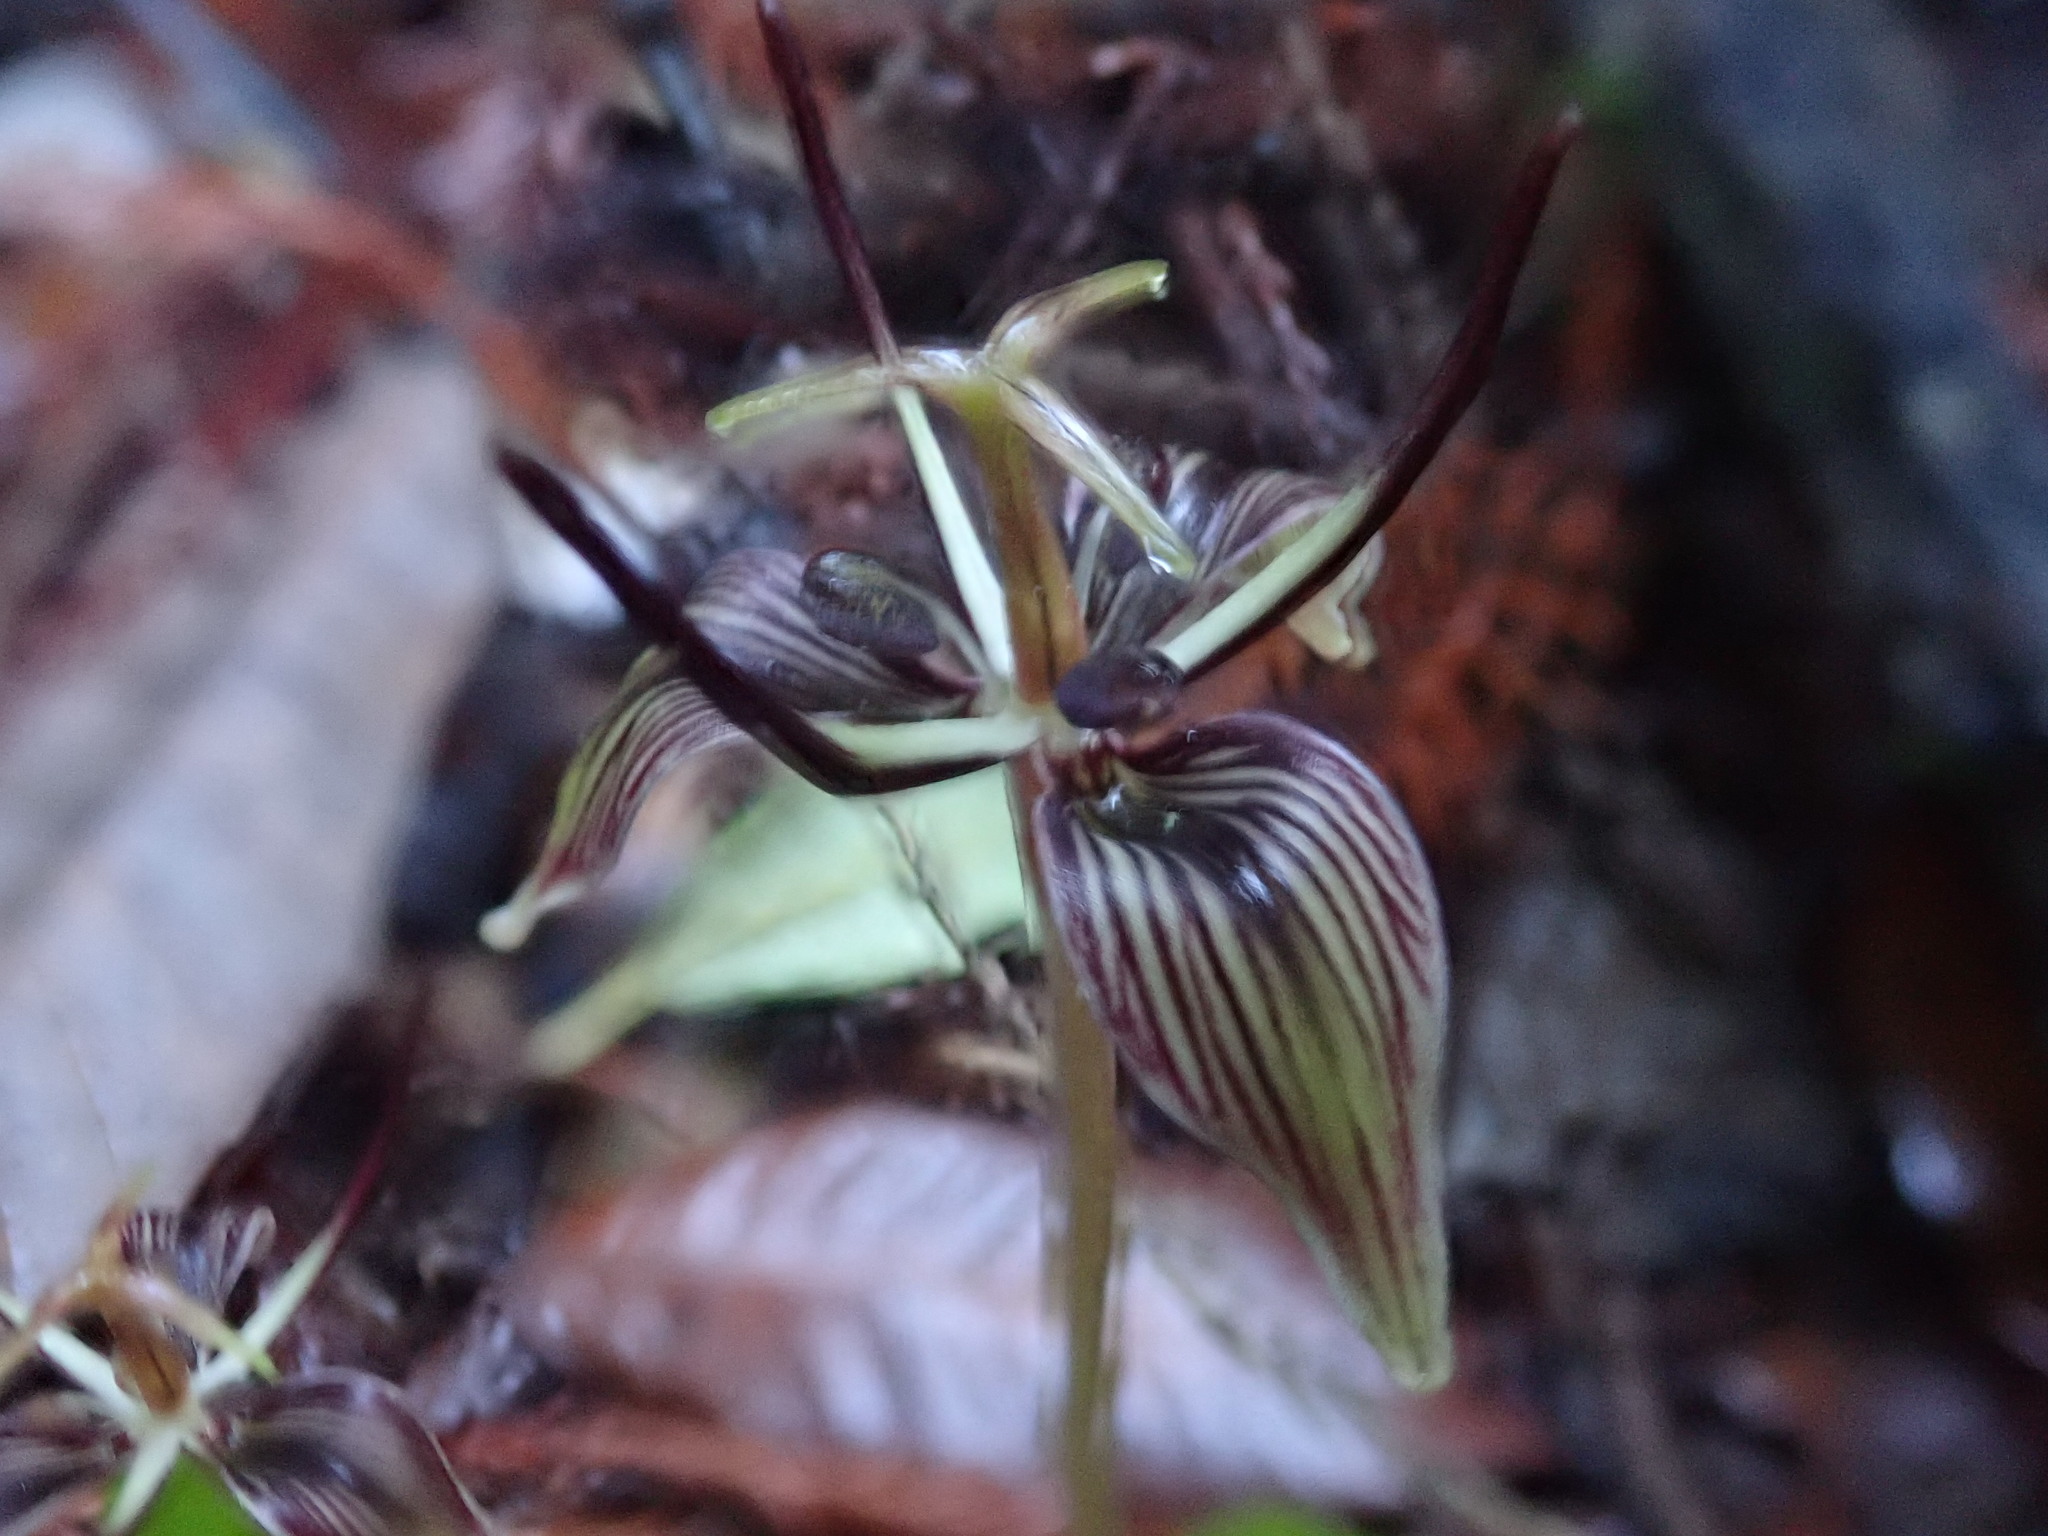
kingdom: Plantae
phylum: Tracheophyta
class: Liliopsida
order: Liliales
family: Liliaceae
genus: Scoliopus
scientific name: Scoliopus bigelovii
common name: Foetid adder's-tongue
